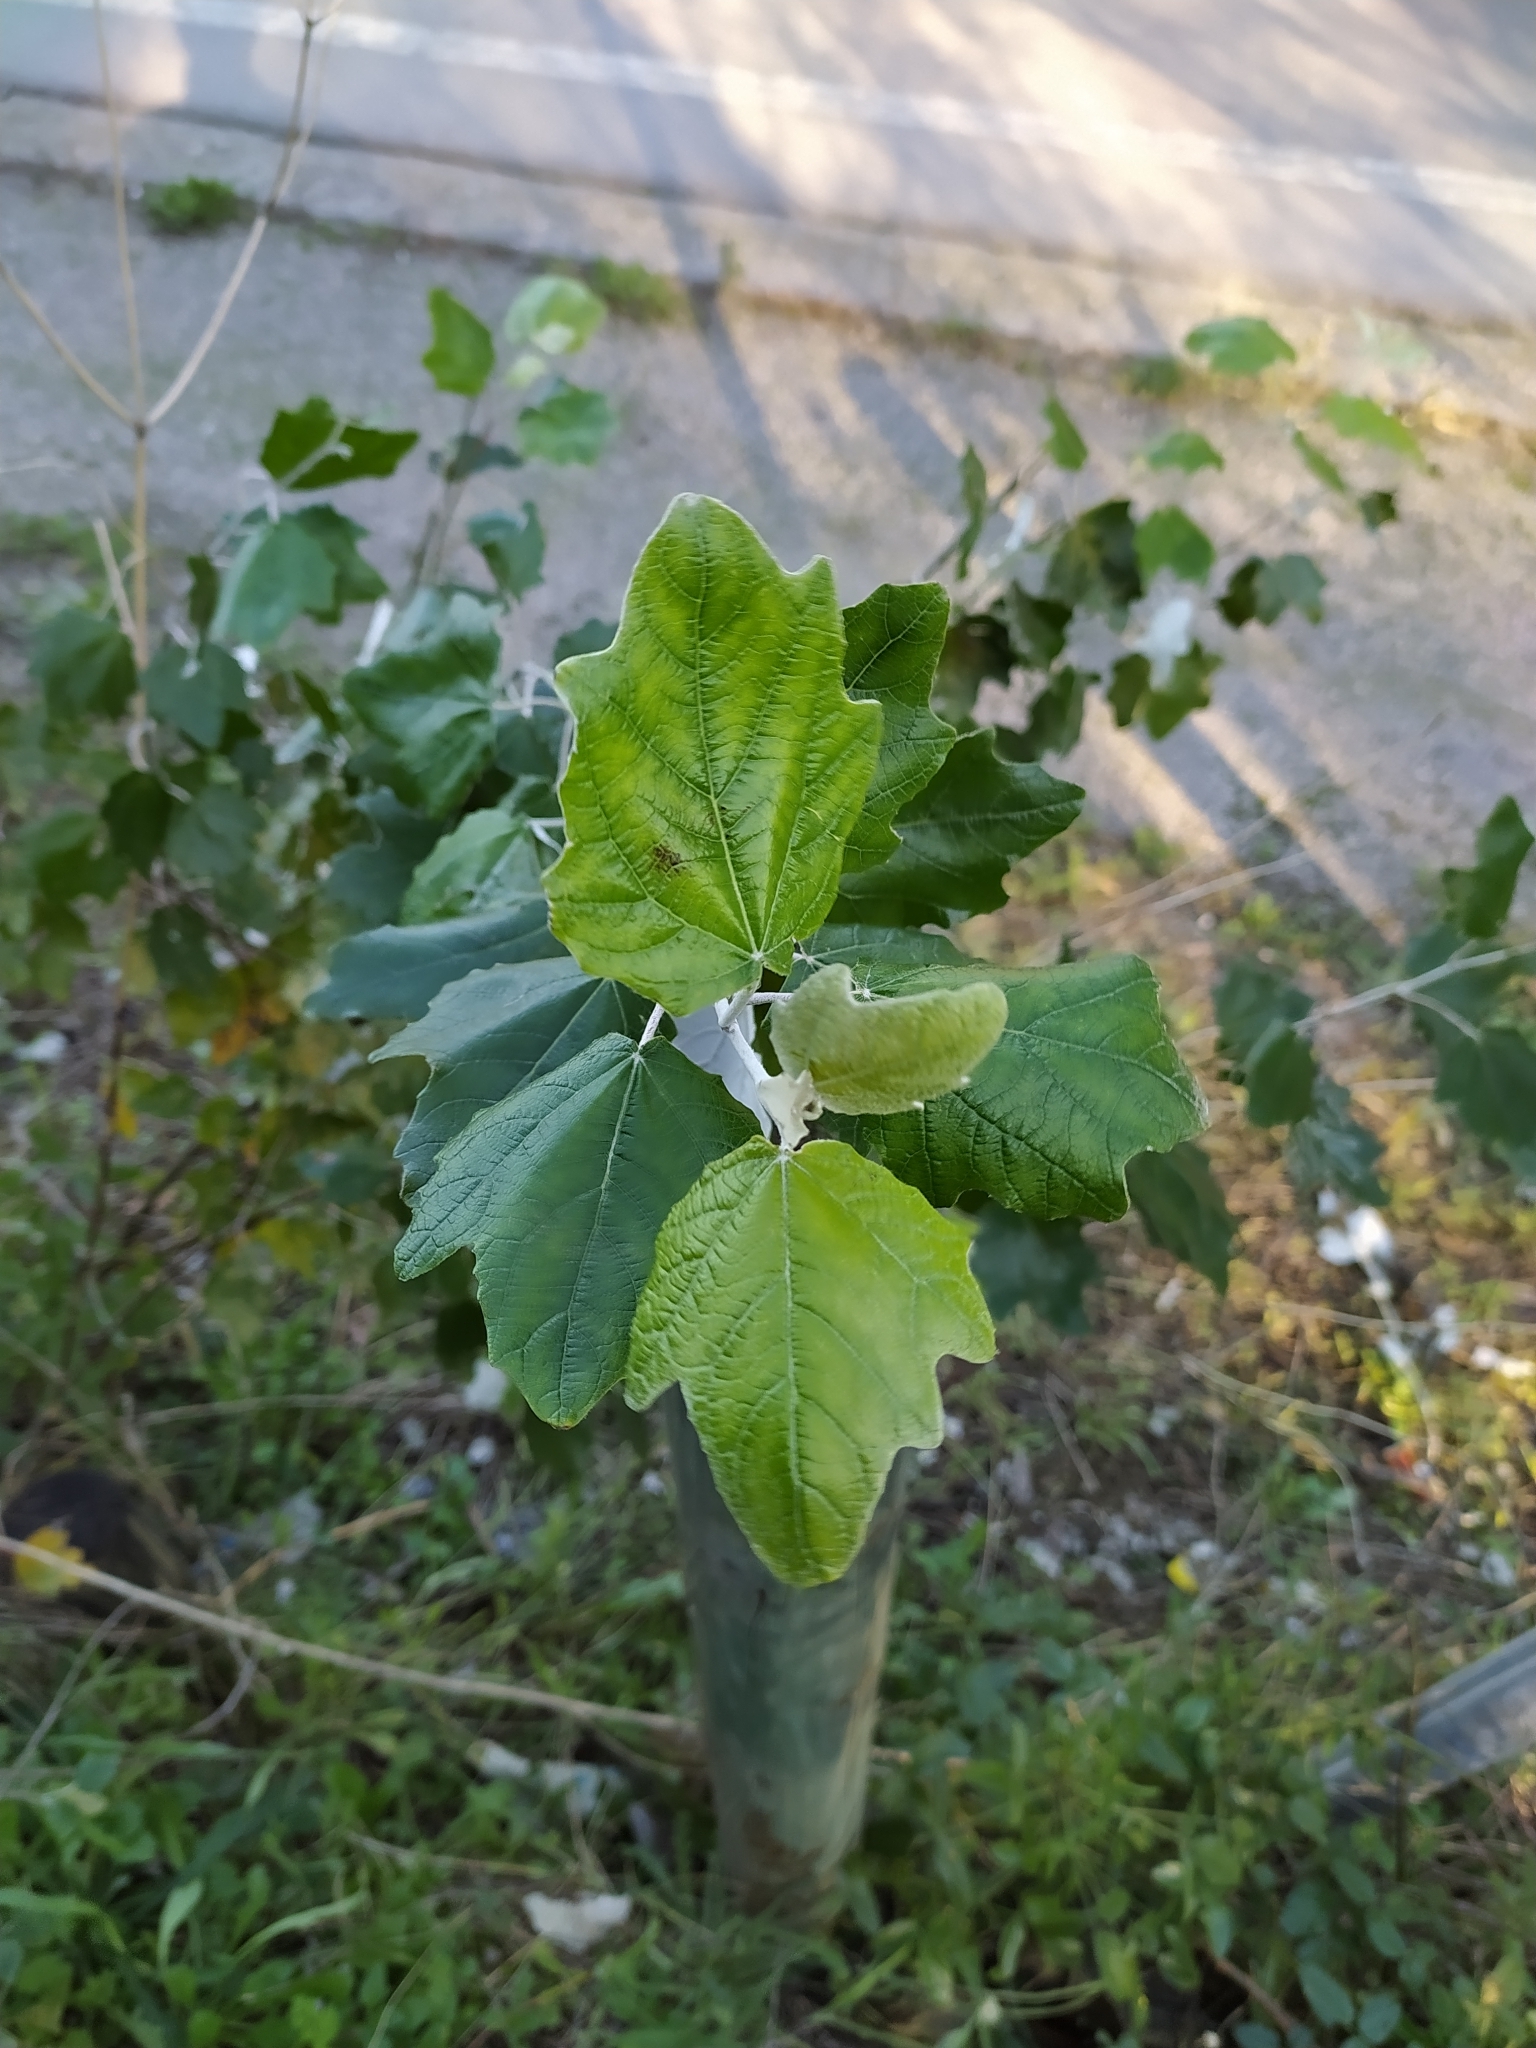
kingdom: Plantae
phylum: Tracheophyta
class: Magnoliopsida
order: Malpighiales
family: Salicaceae
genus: Populus
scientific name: Populus alba
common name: White poplar
